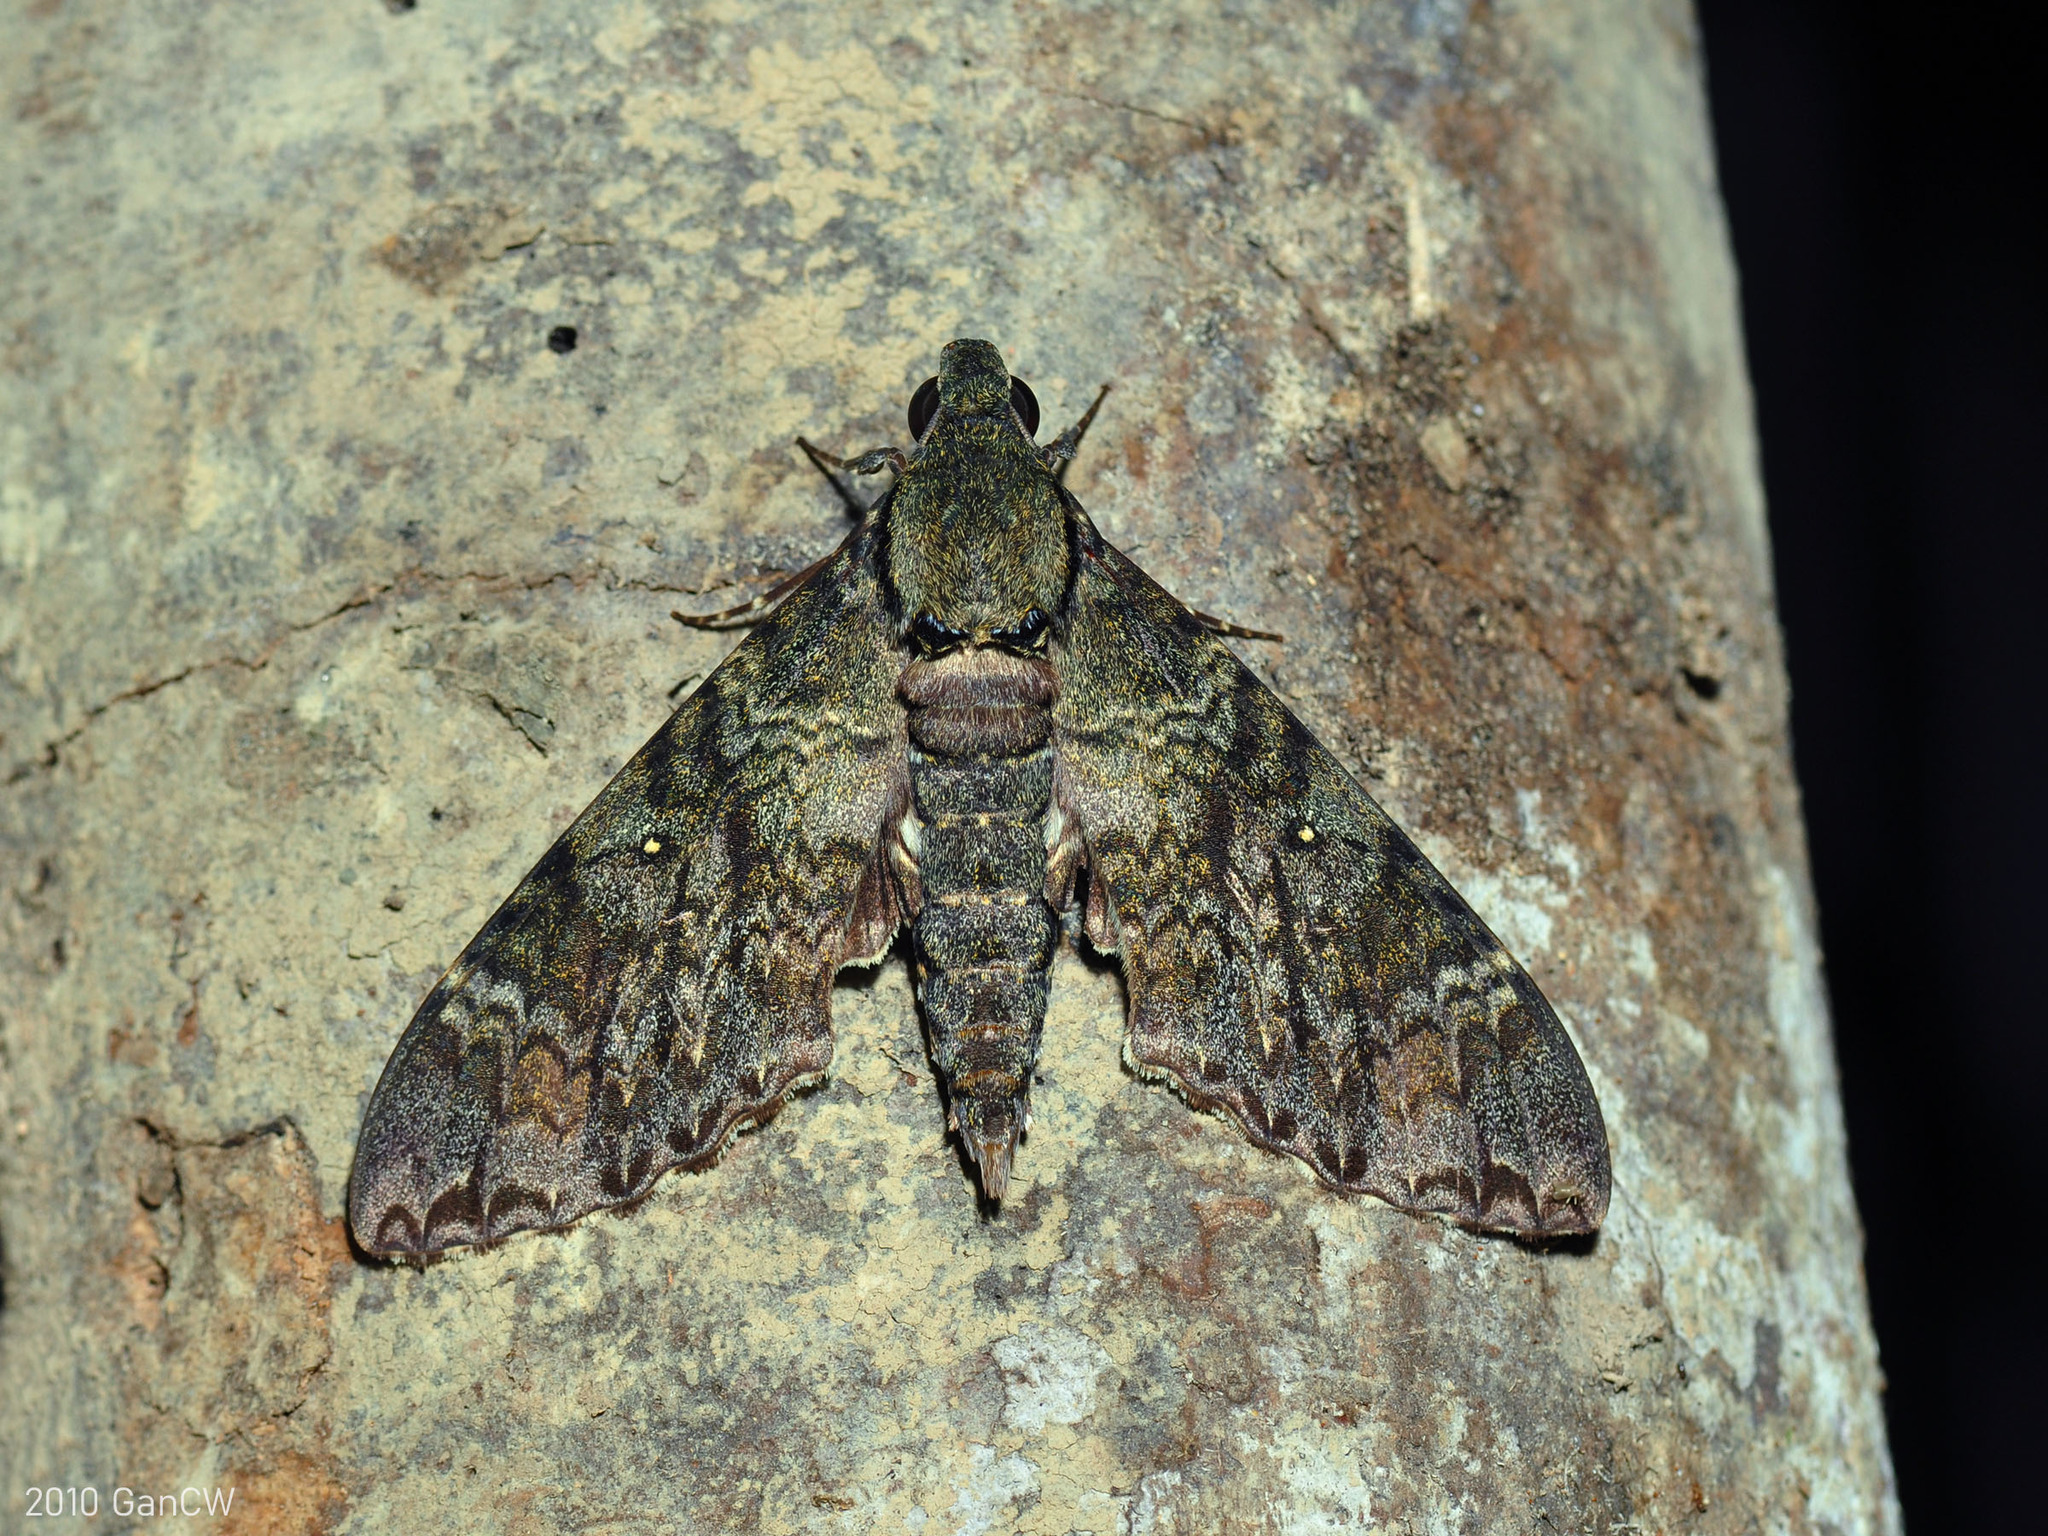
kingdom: Animalia
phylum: Arthropoda
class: Insecta
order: Lepidoptera
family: Sphingidae
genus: Meganoton
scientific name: Meganoton nyctiphanes
